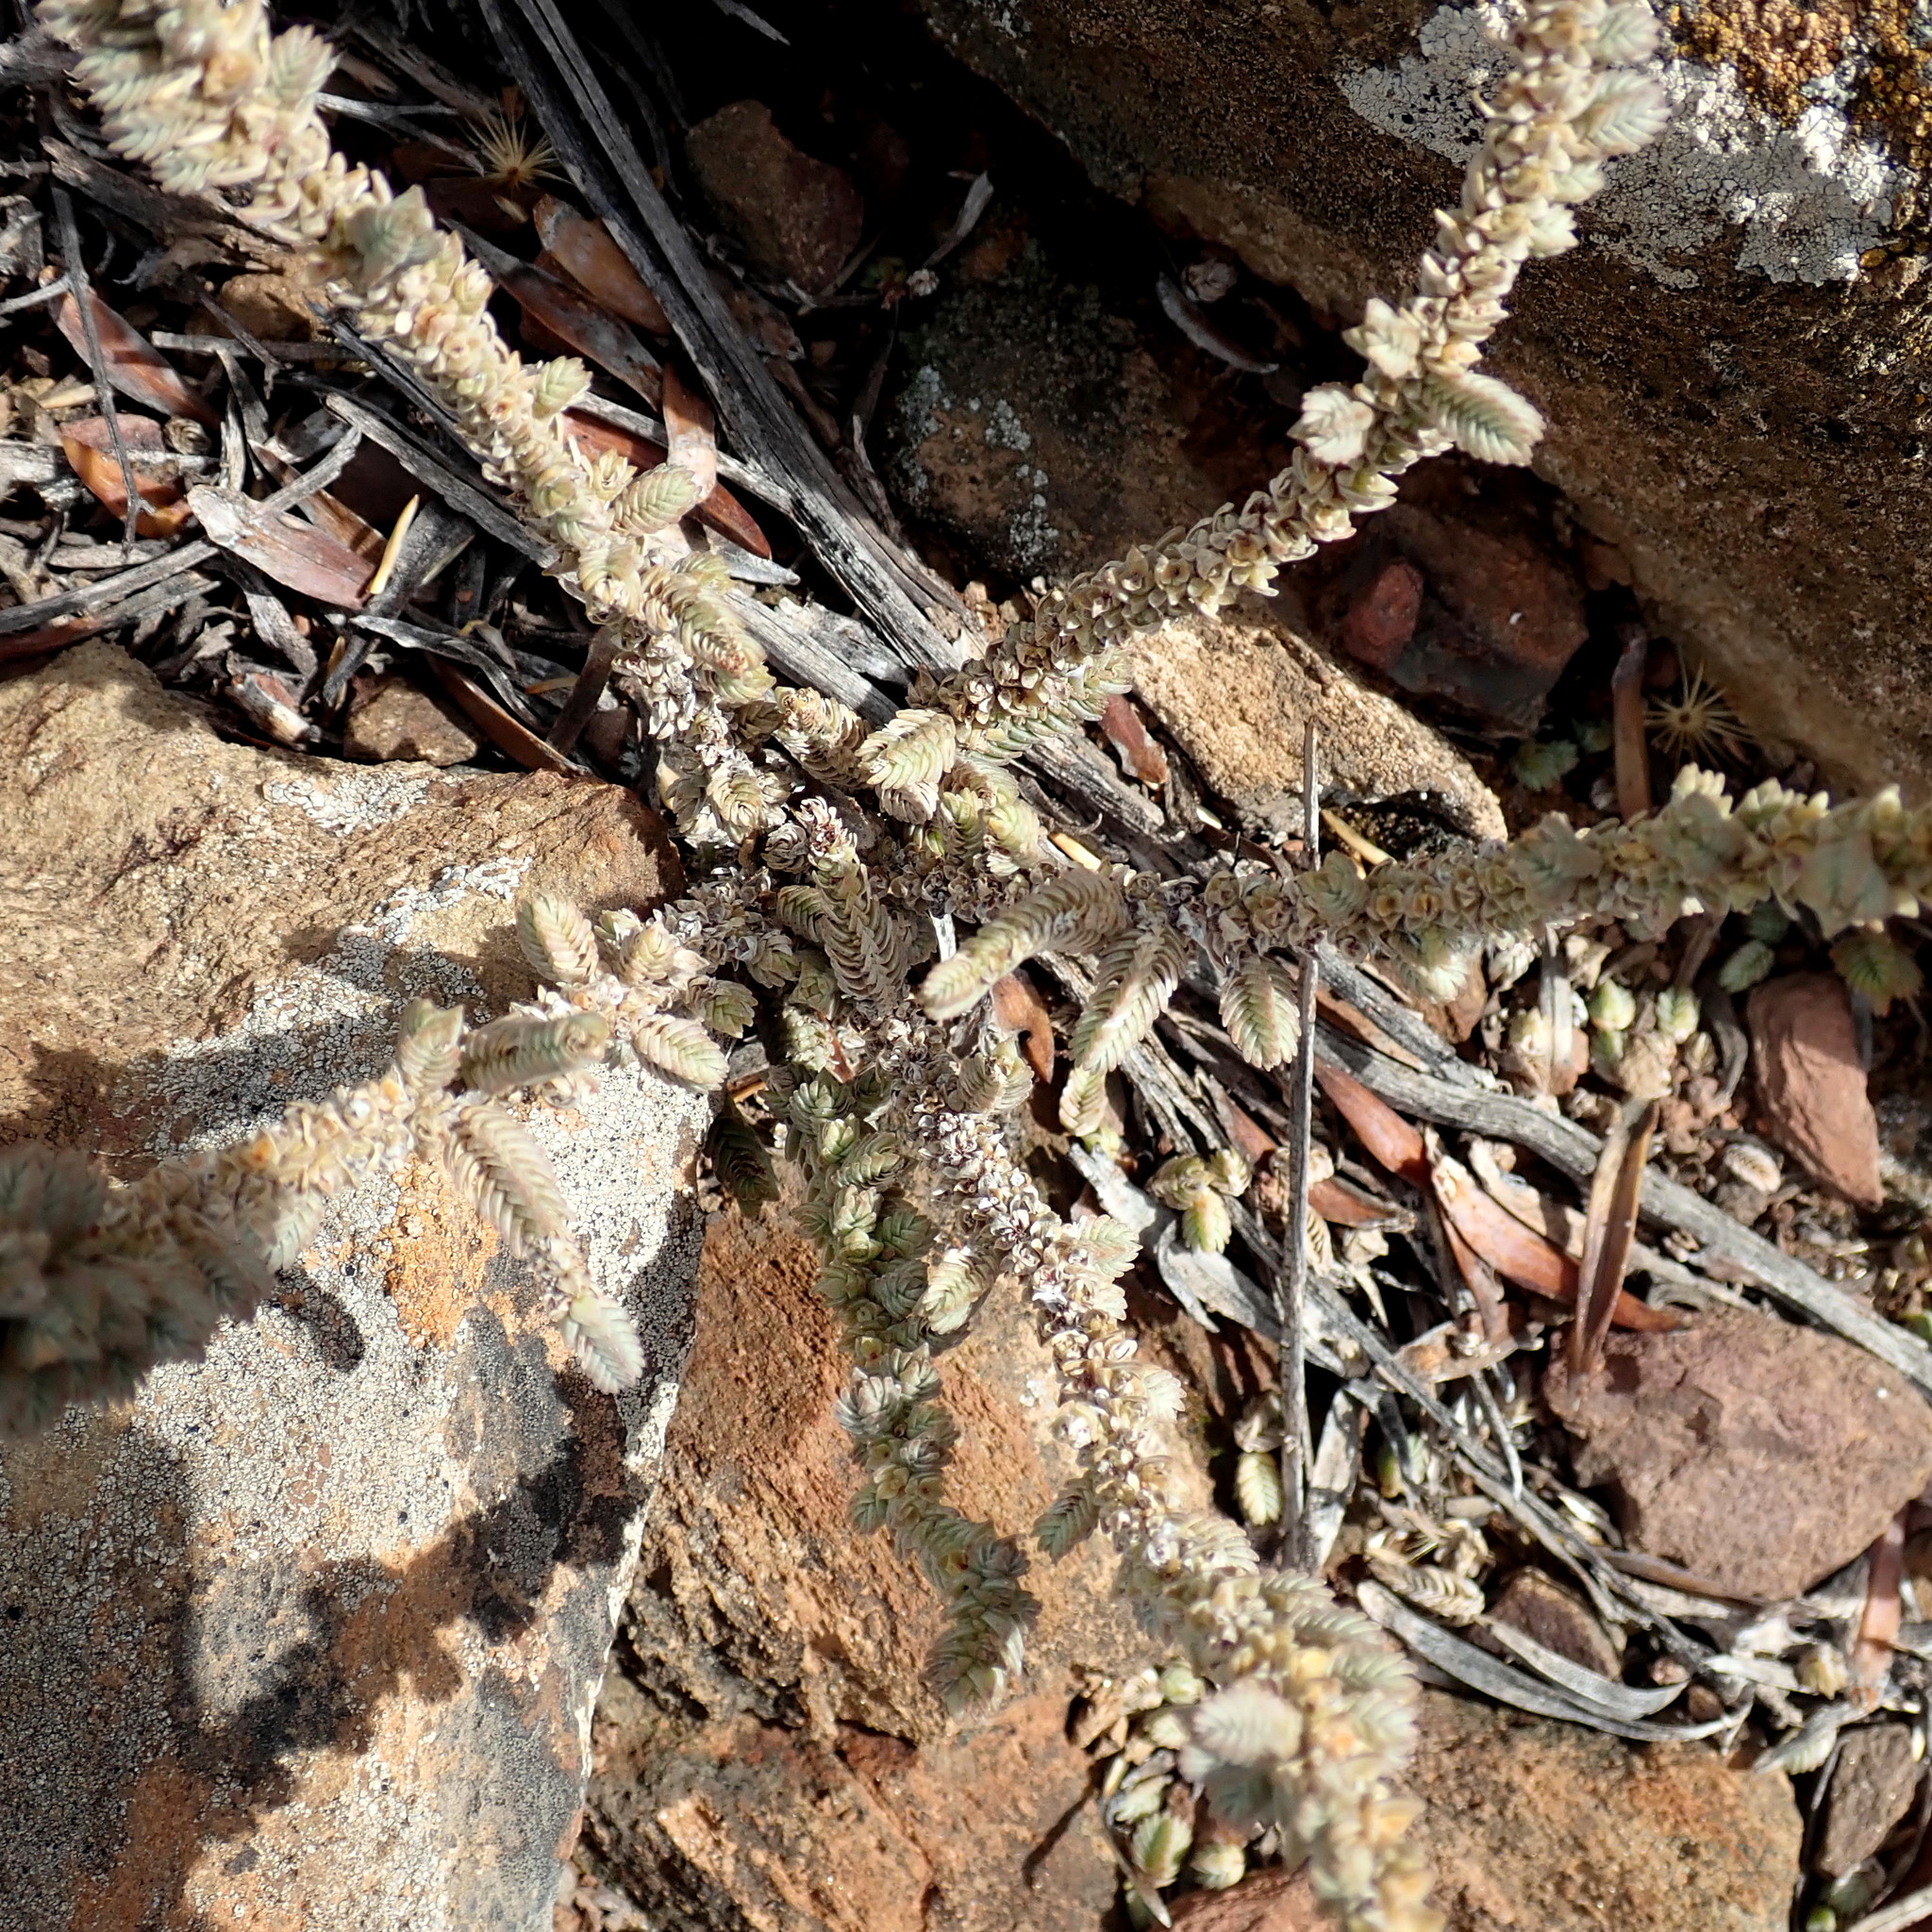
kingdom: Plantae
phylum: Tracheophyta
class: Magnoliopsida
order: Saxifragales
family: Crassulaceae
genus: Crassula
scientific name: Crassula muscosa
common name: Toy-cypress
